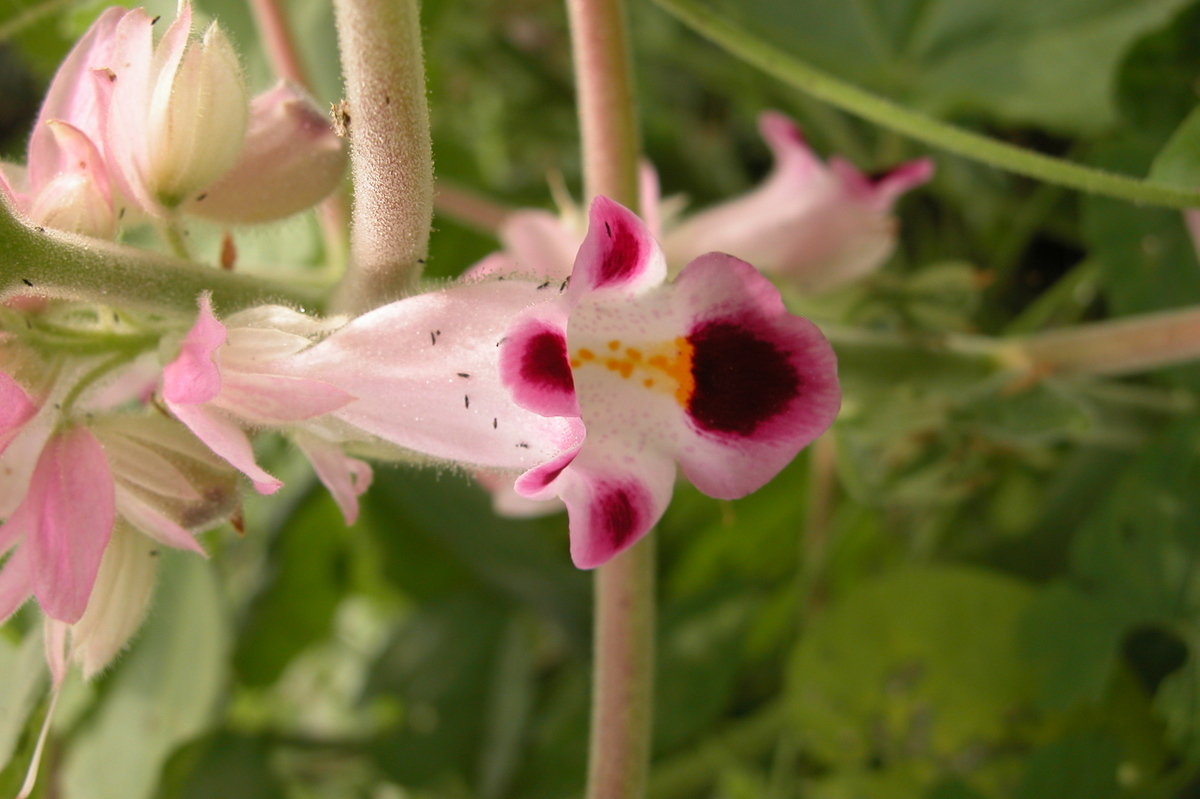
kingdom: Plantae
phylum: Tracheophyta
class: Magnoliopsida
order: Lamiales
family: Martyniaceae
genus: Martynia
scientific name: Martynia annua
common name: Tiger's-claw
